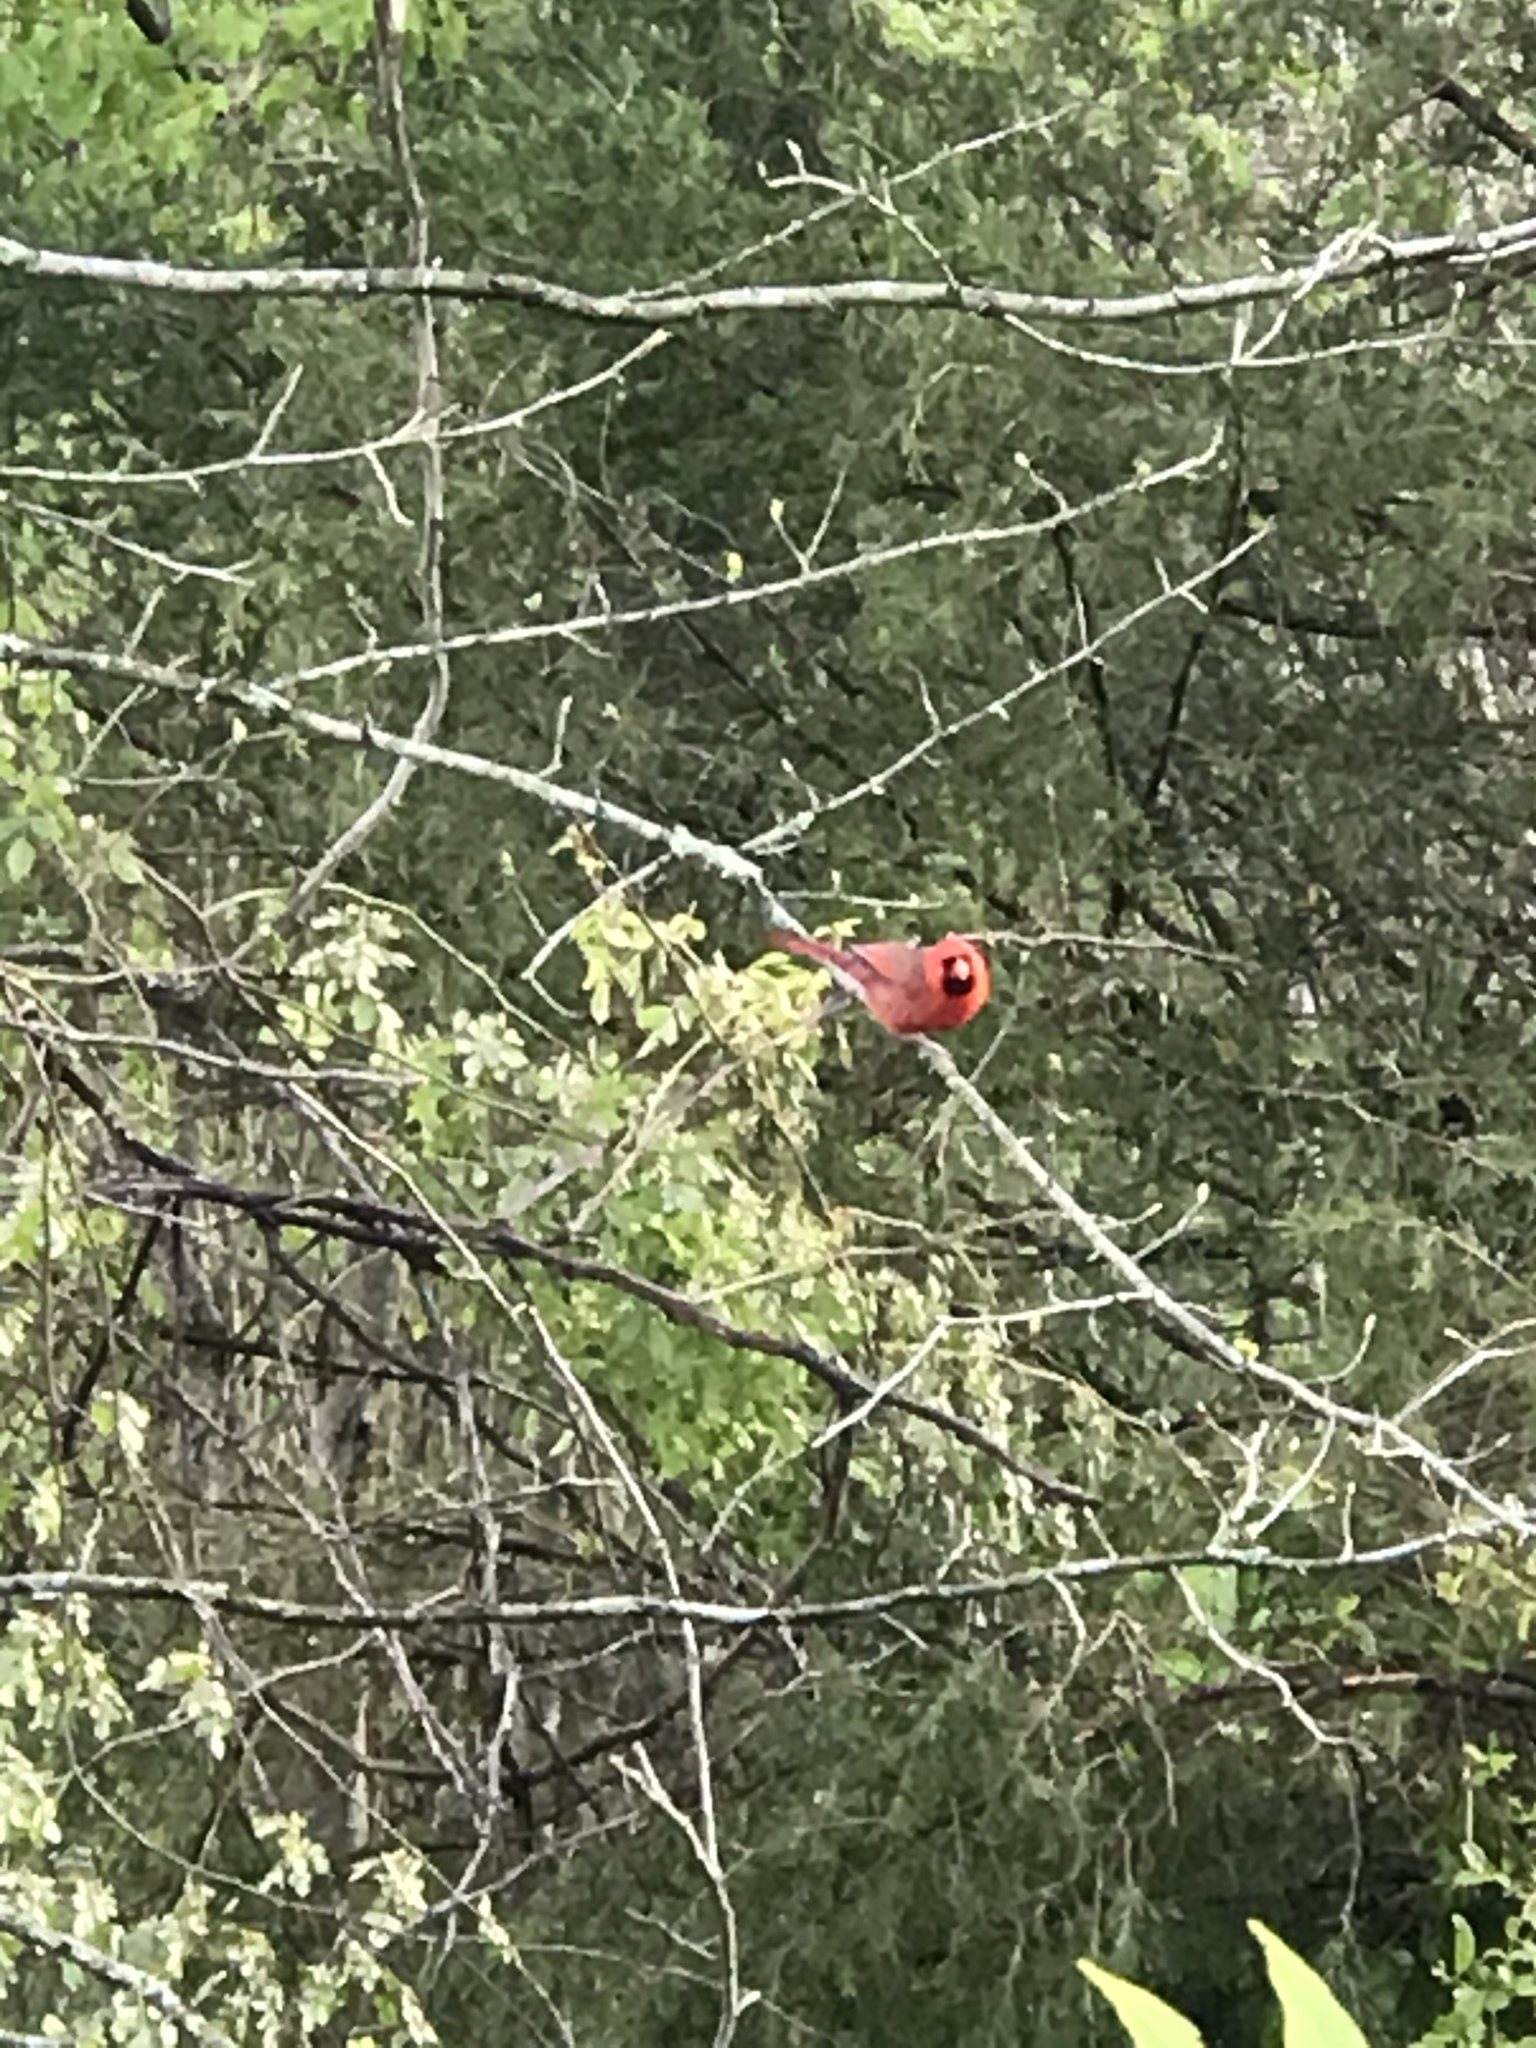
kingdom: Animalia
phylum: Chordata
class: Aves
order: Passeriformes
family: Cardinalidae
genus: Cardinalis
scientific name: Cardinalis cardinalis
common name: Northern cardinal
